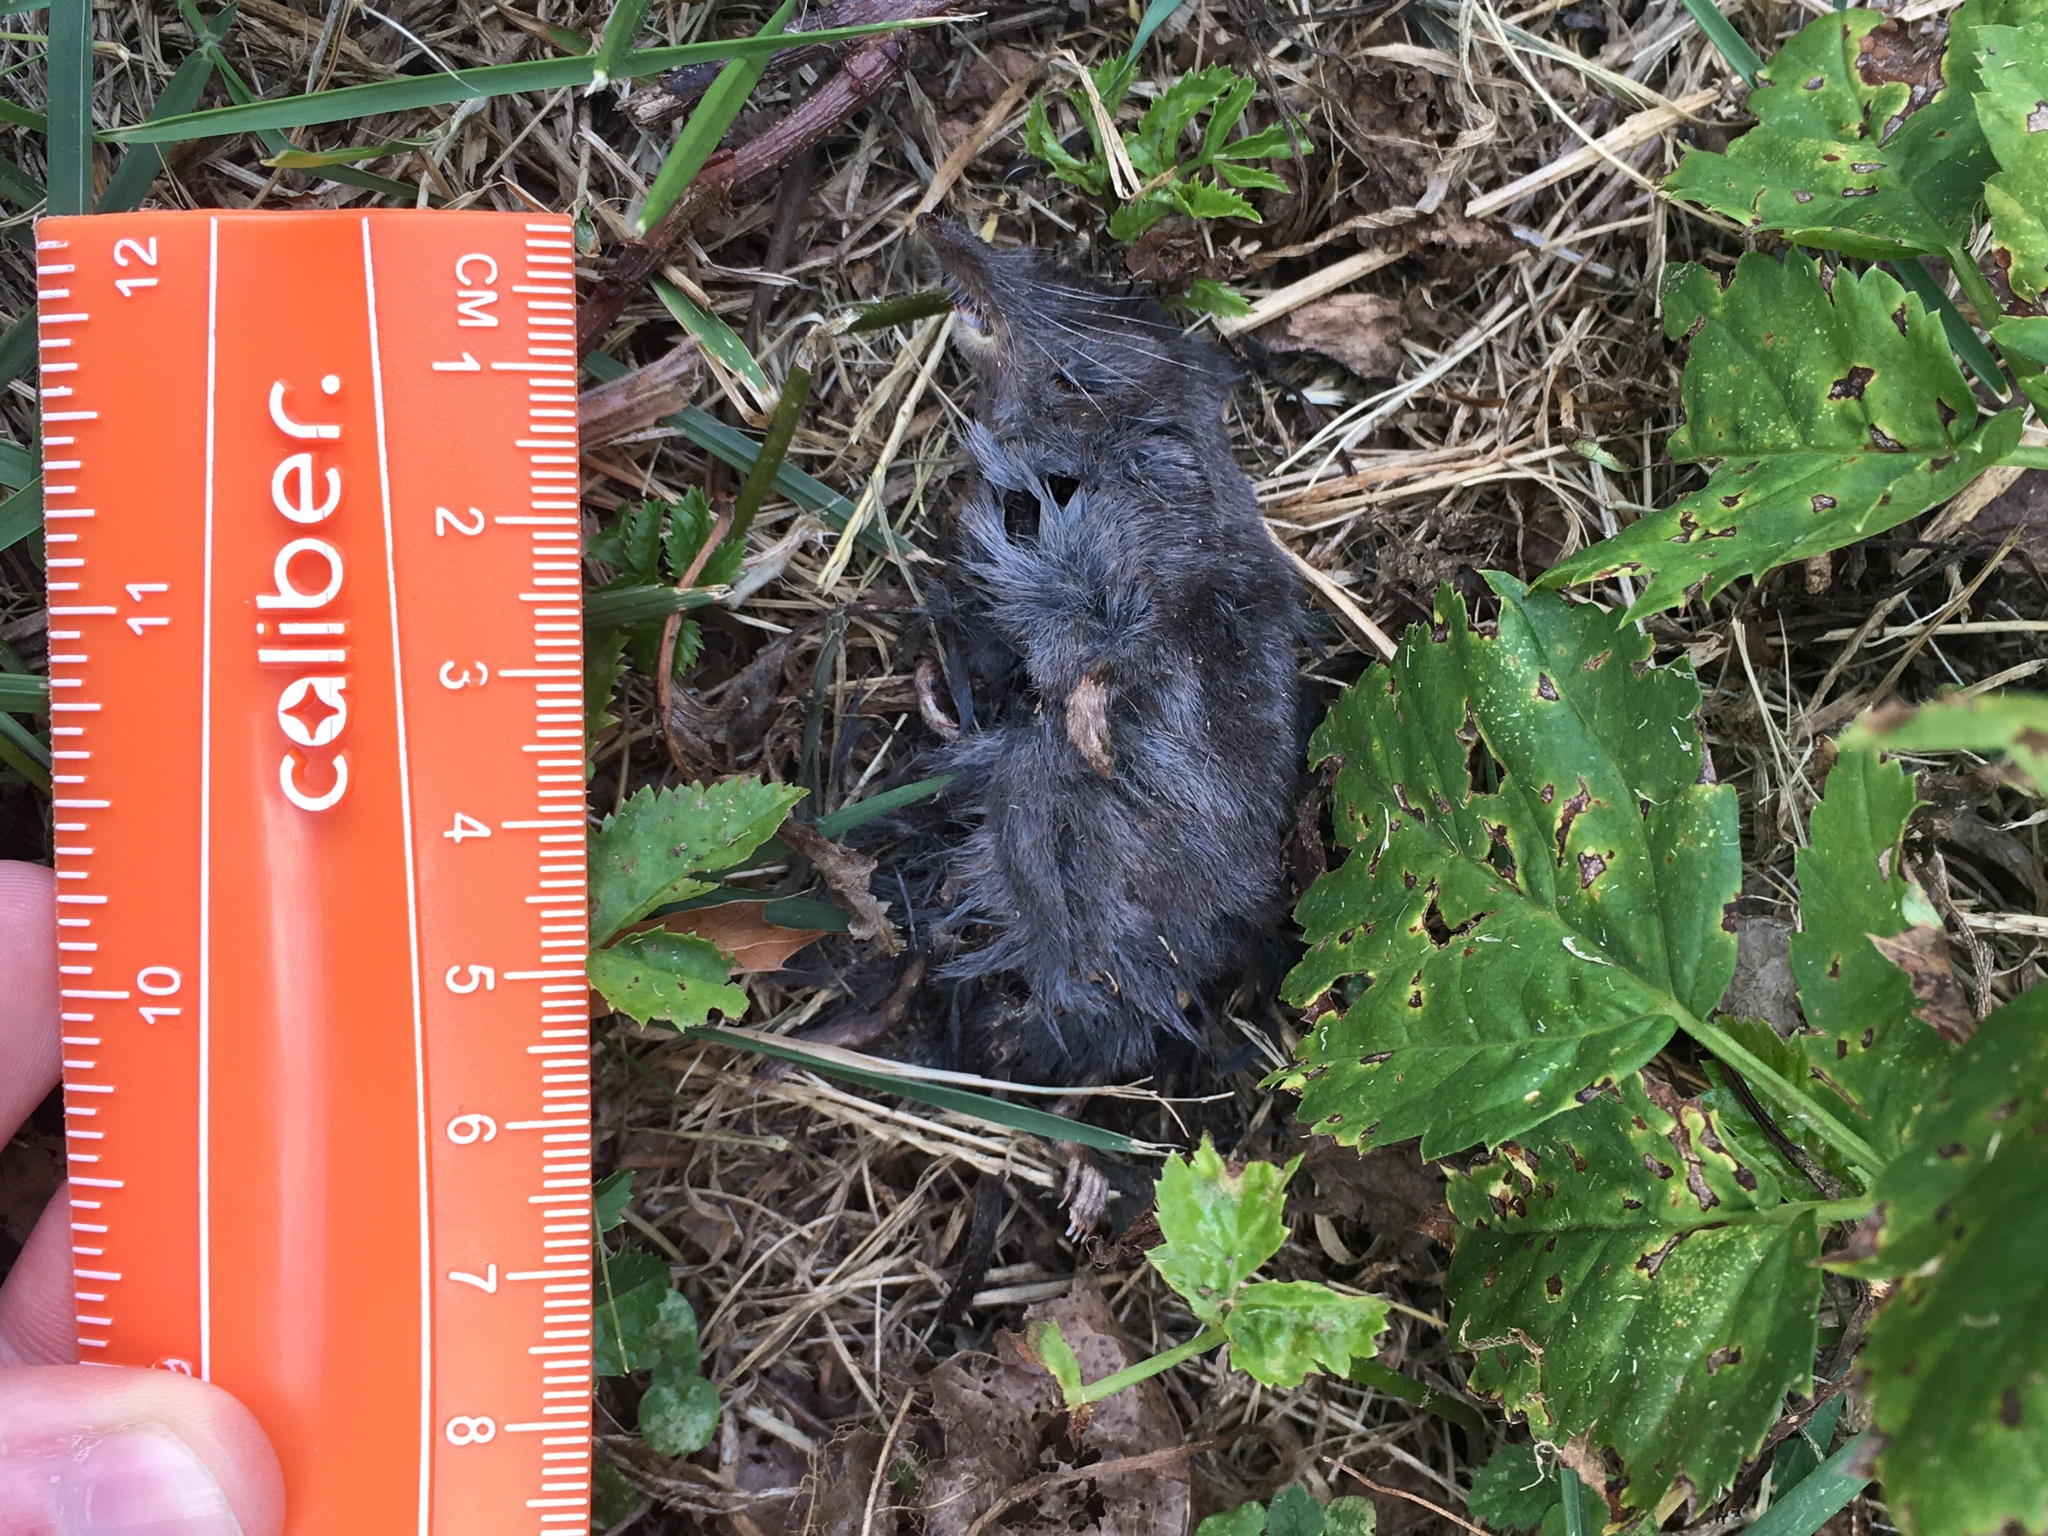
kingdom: Animalia
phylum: Chordata
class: Mammalia
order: Soricomorpha
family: Soricidae
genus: Blarina
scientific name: Blarina brevicauda
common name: Northern short-tailed shrew
